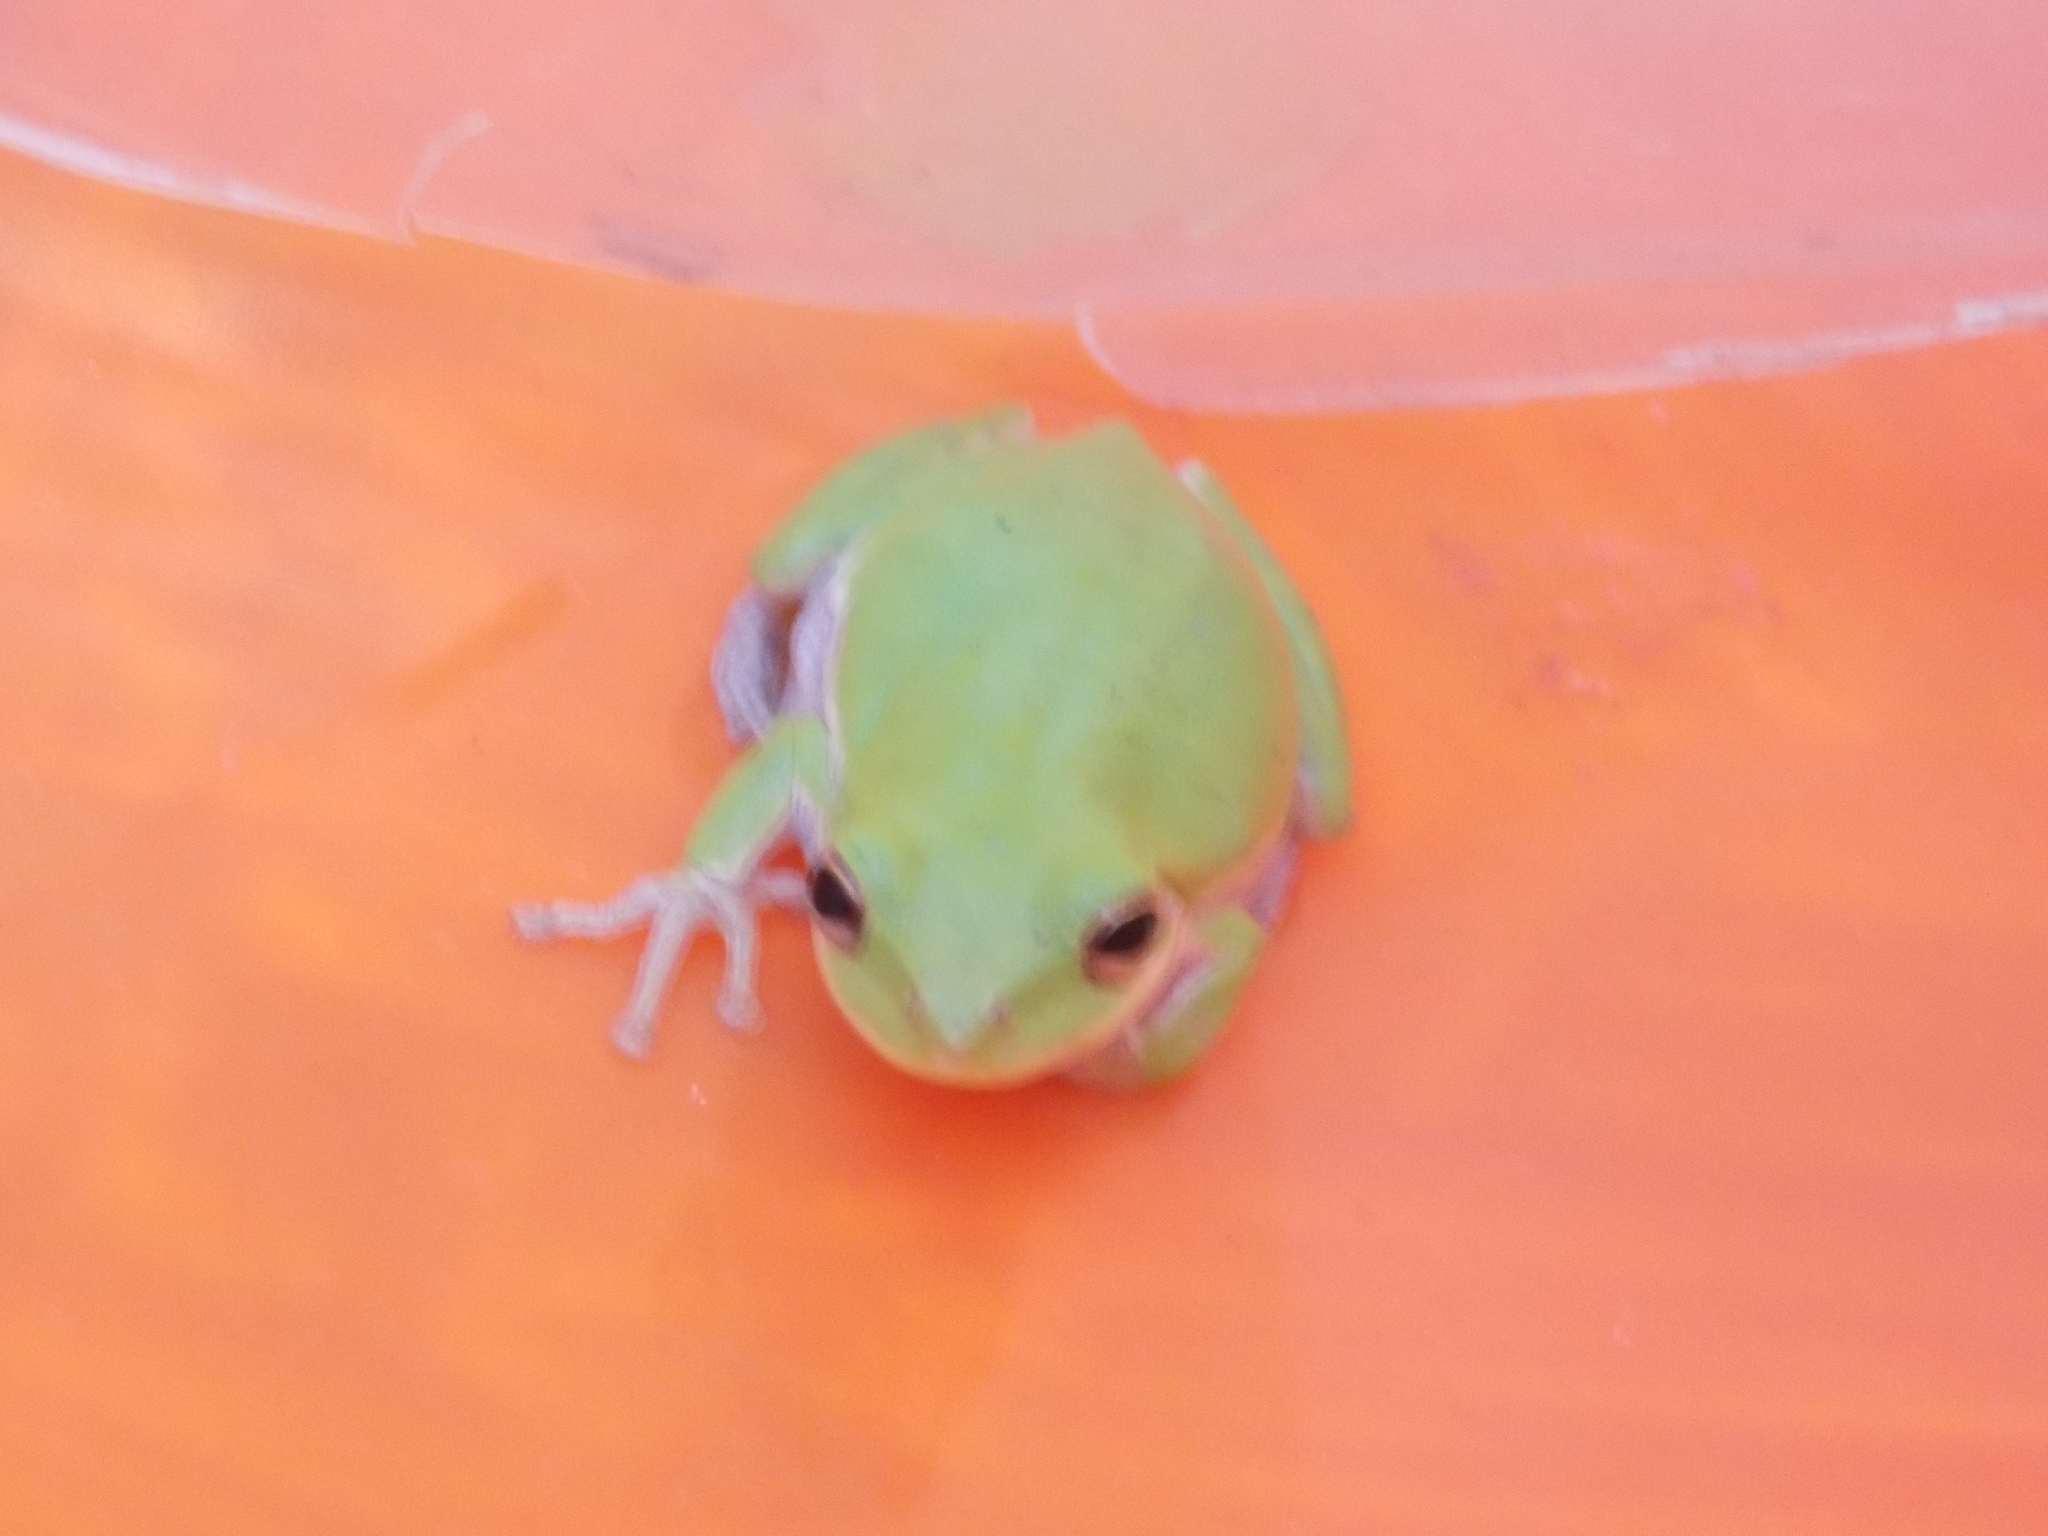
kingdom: Animalia
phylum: Chordata
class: Amphibia
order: Anura
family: Hylidae
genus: Dryophytes
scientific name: Dryophytes squirellus
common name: Squirrel treefrog
